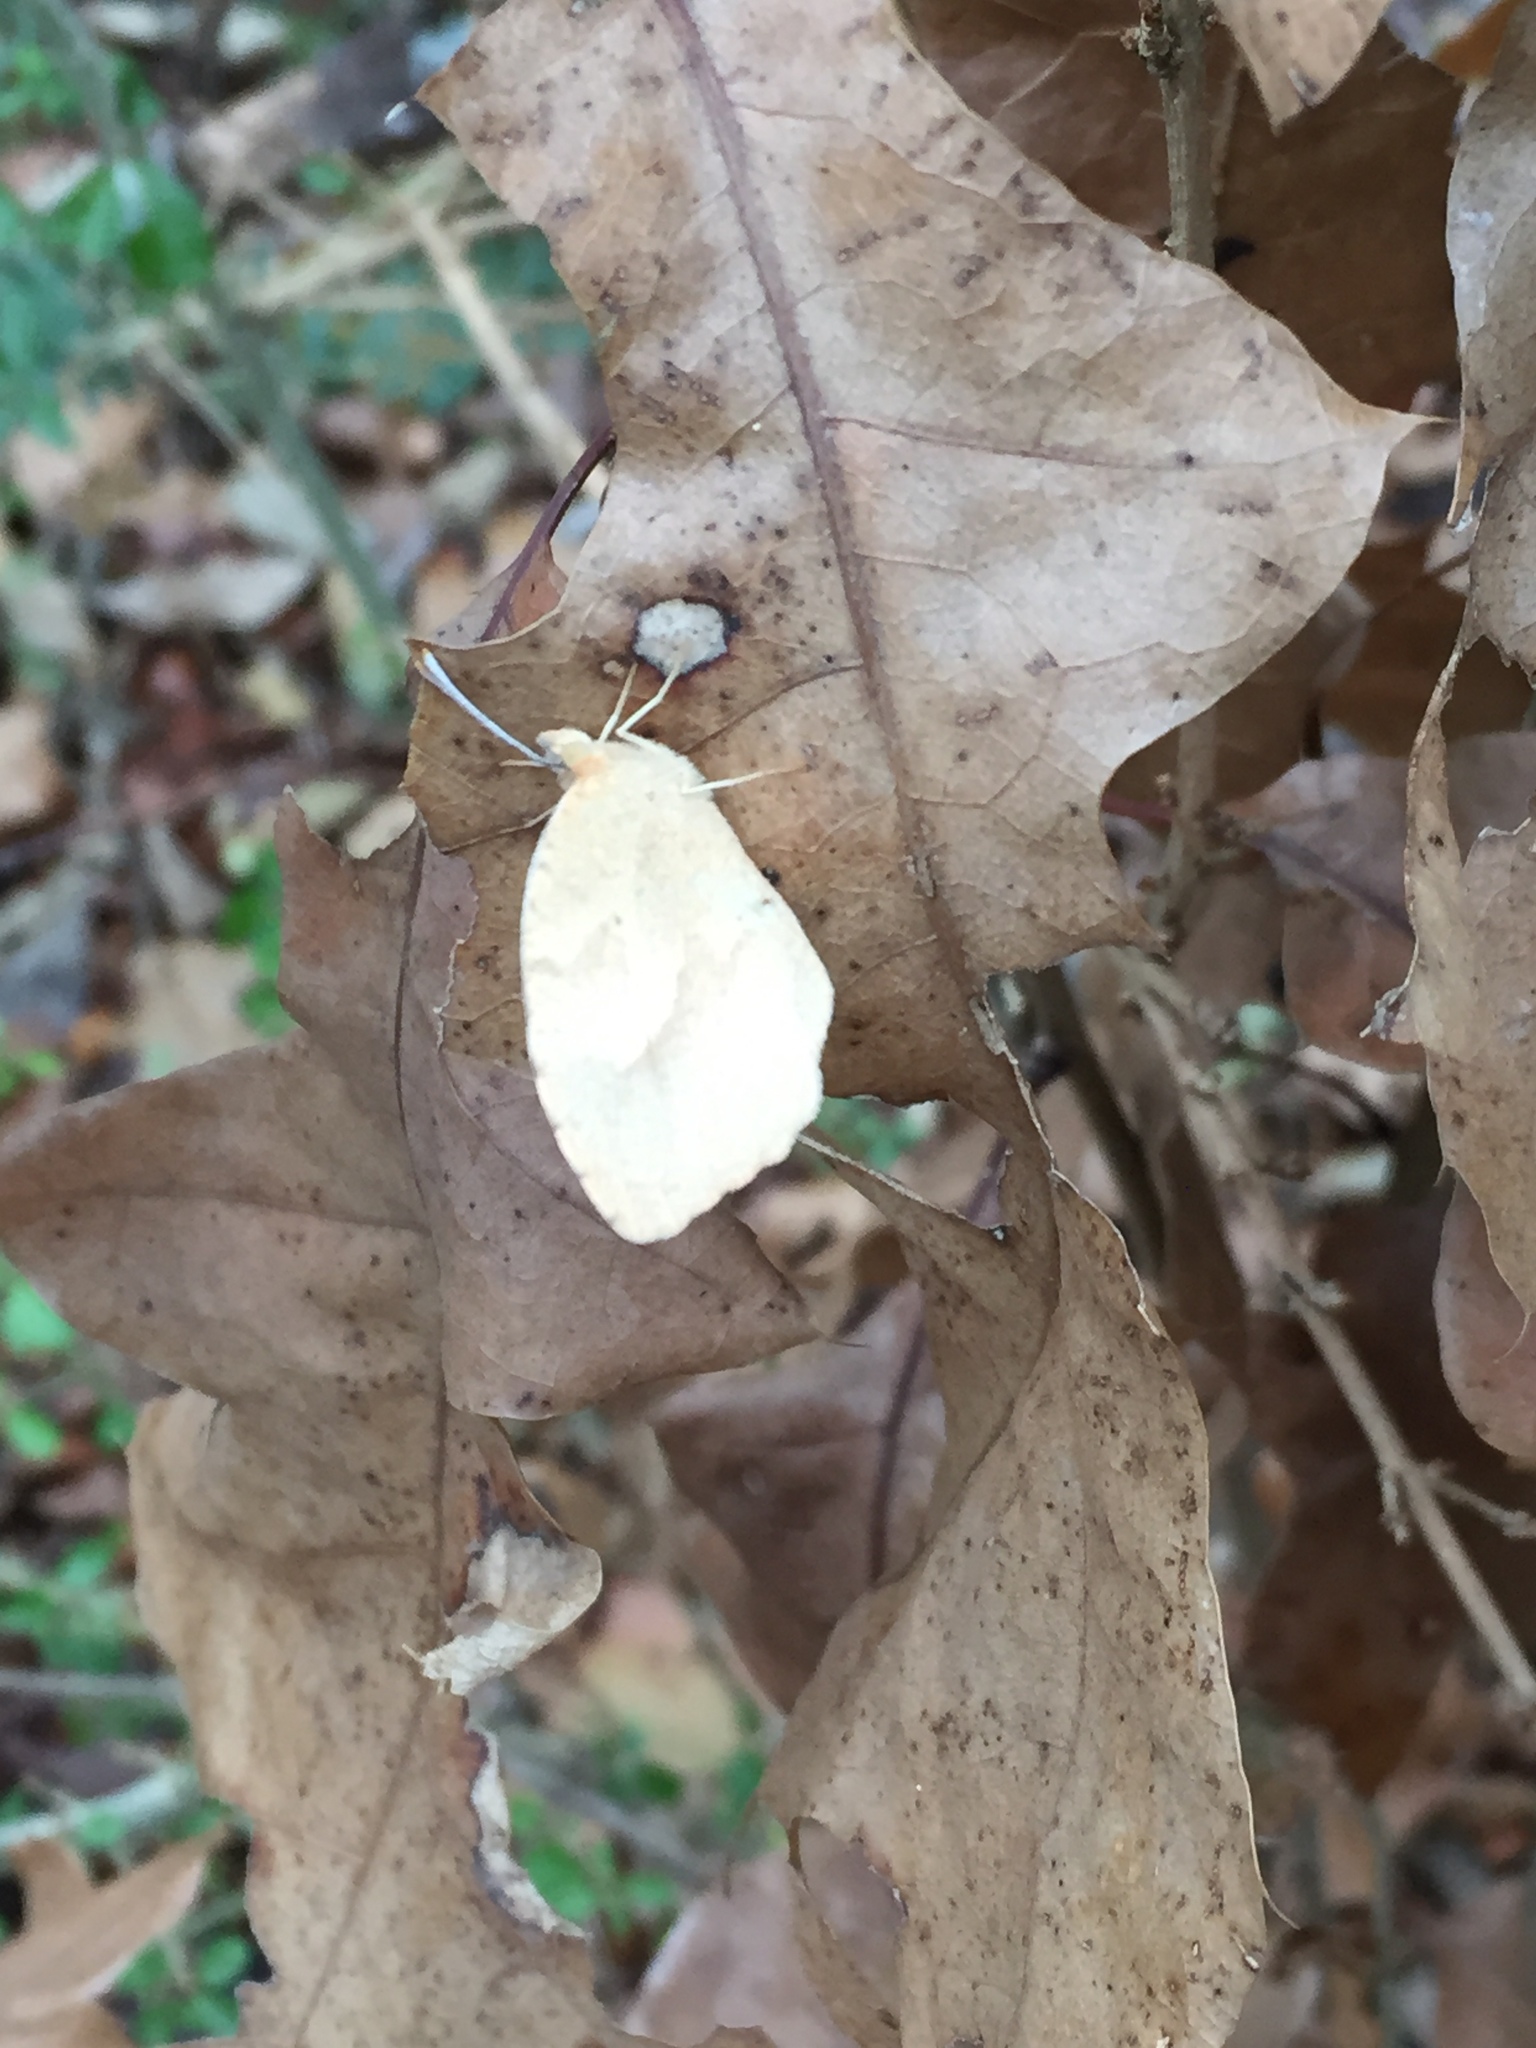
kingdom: Animalia
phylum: Arthropoda
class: Insecta
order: Lepidoptera
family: Pieridae
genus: Abaeis
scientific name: Abaeis nicippe
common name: Sleepy orange
